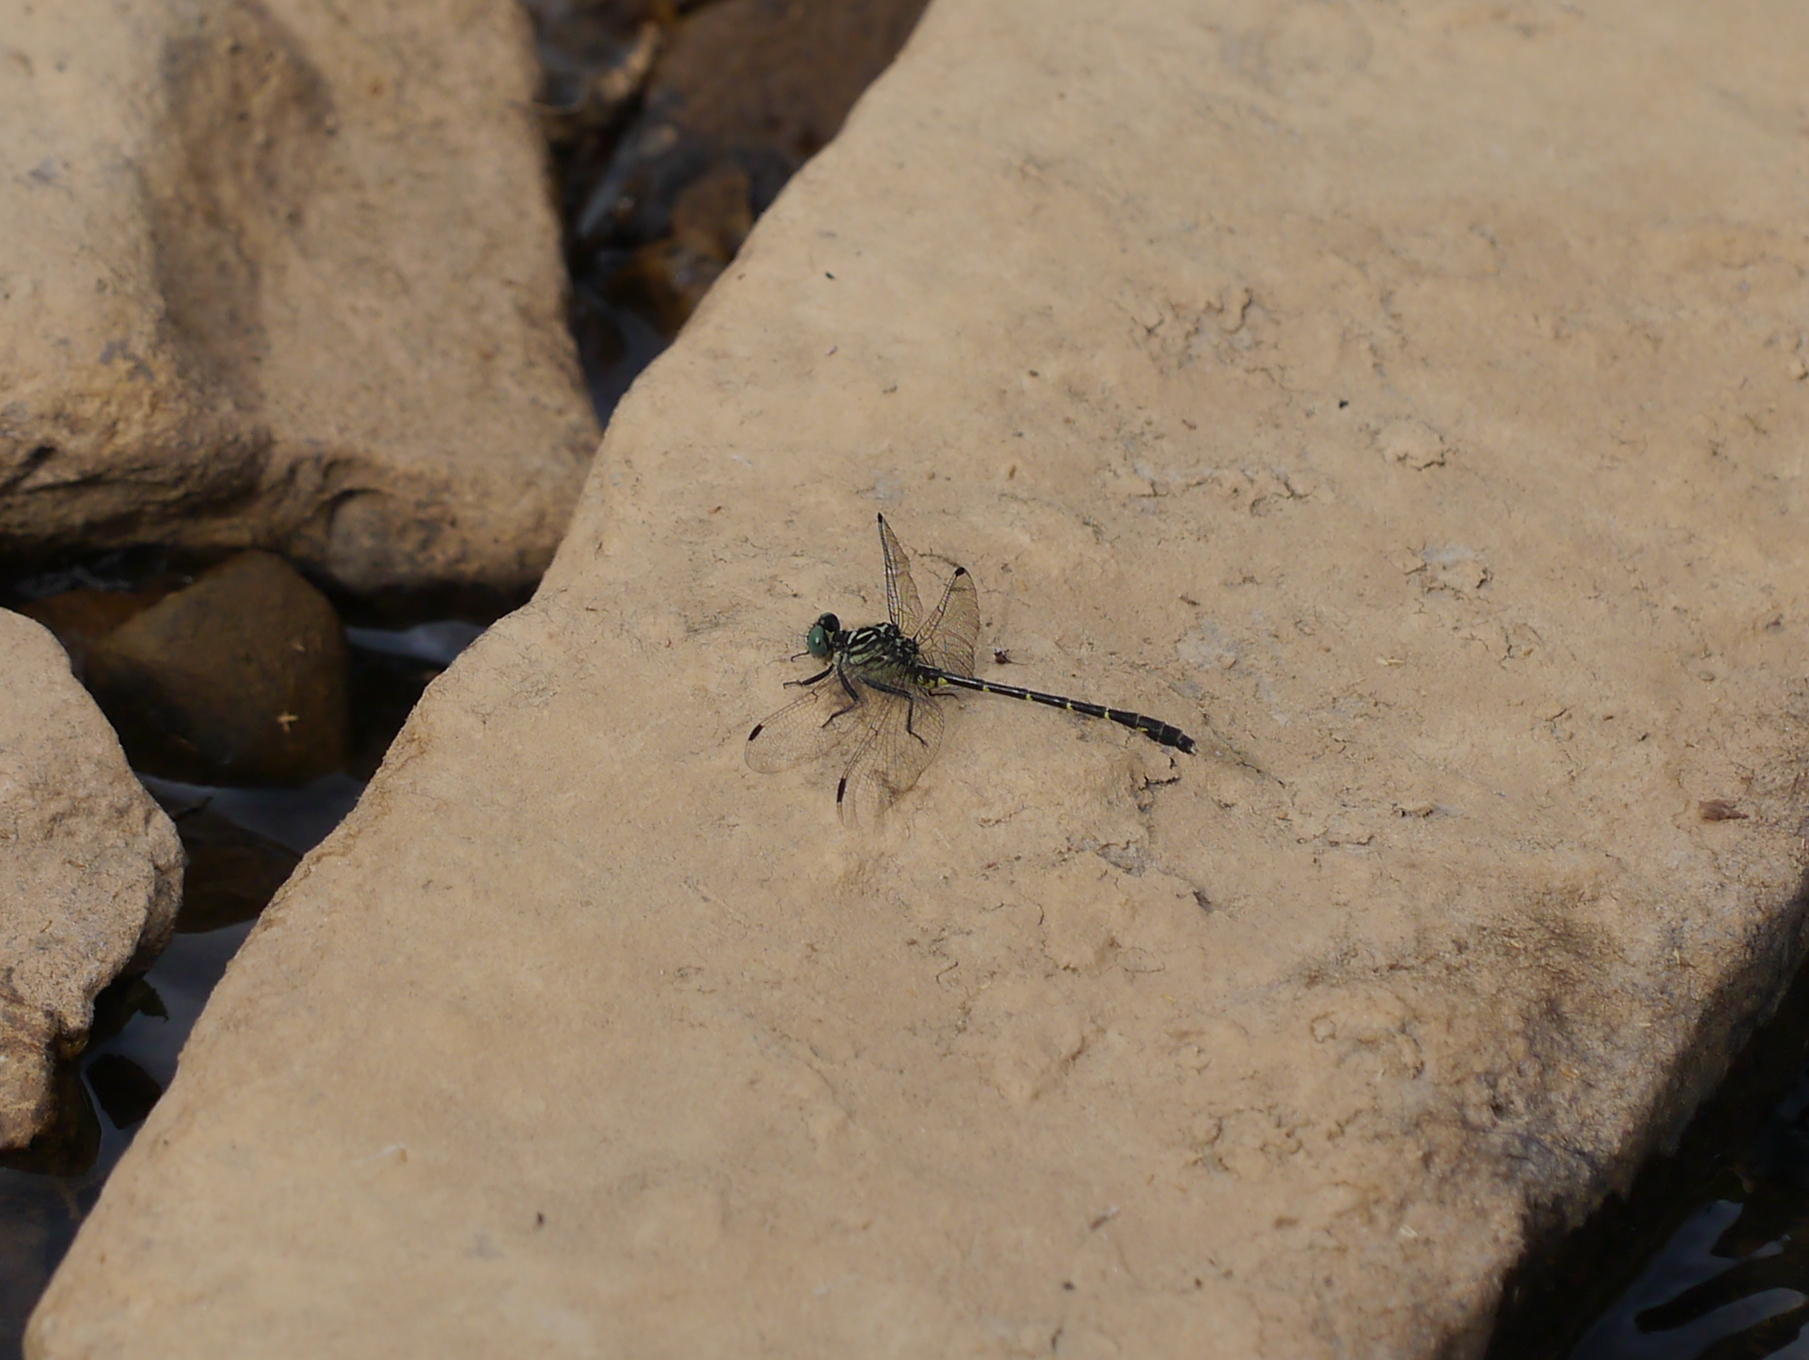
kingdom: Animalia
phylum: Arthropoda
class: Insecta
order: Odonata
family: Gomphidae
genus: Stylogomphus
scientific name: Stylogomphus albistylus
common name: Eastern least clubtail
